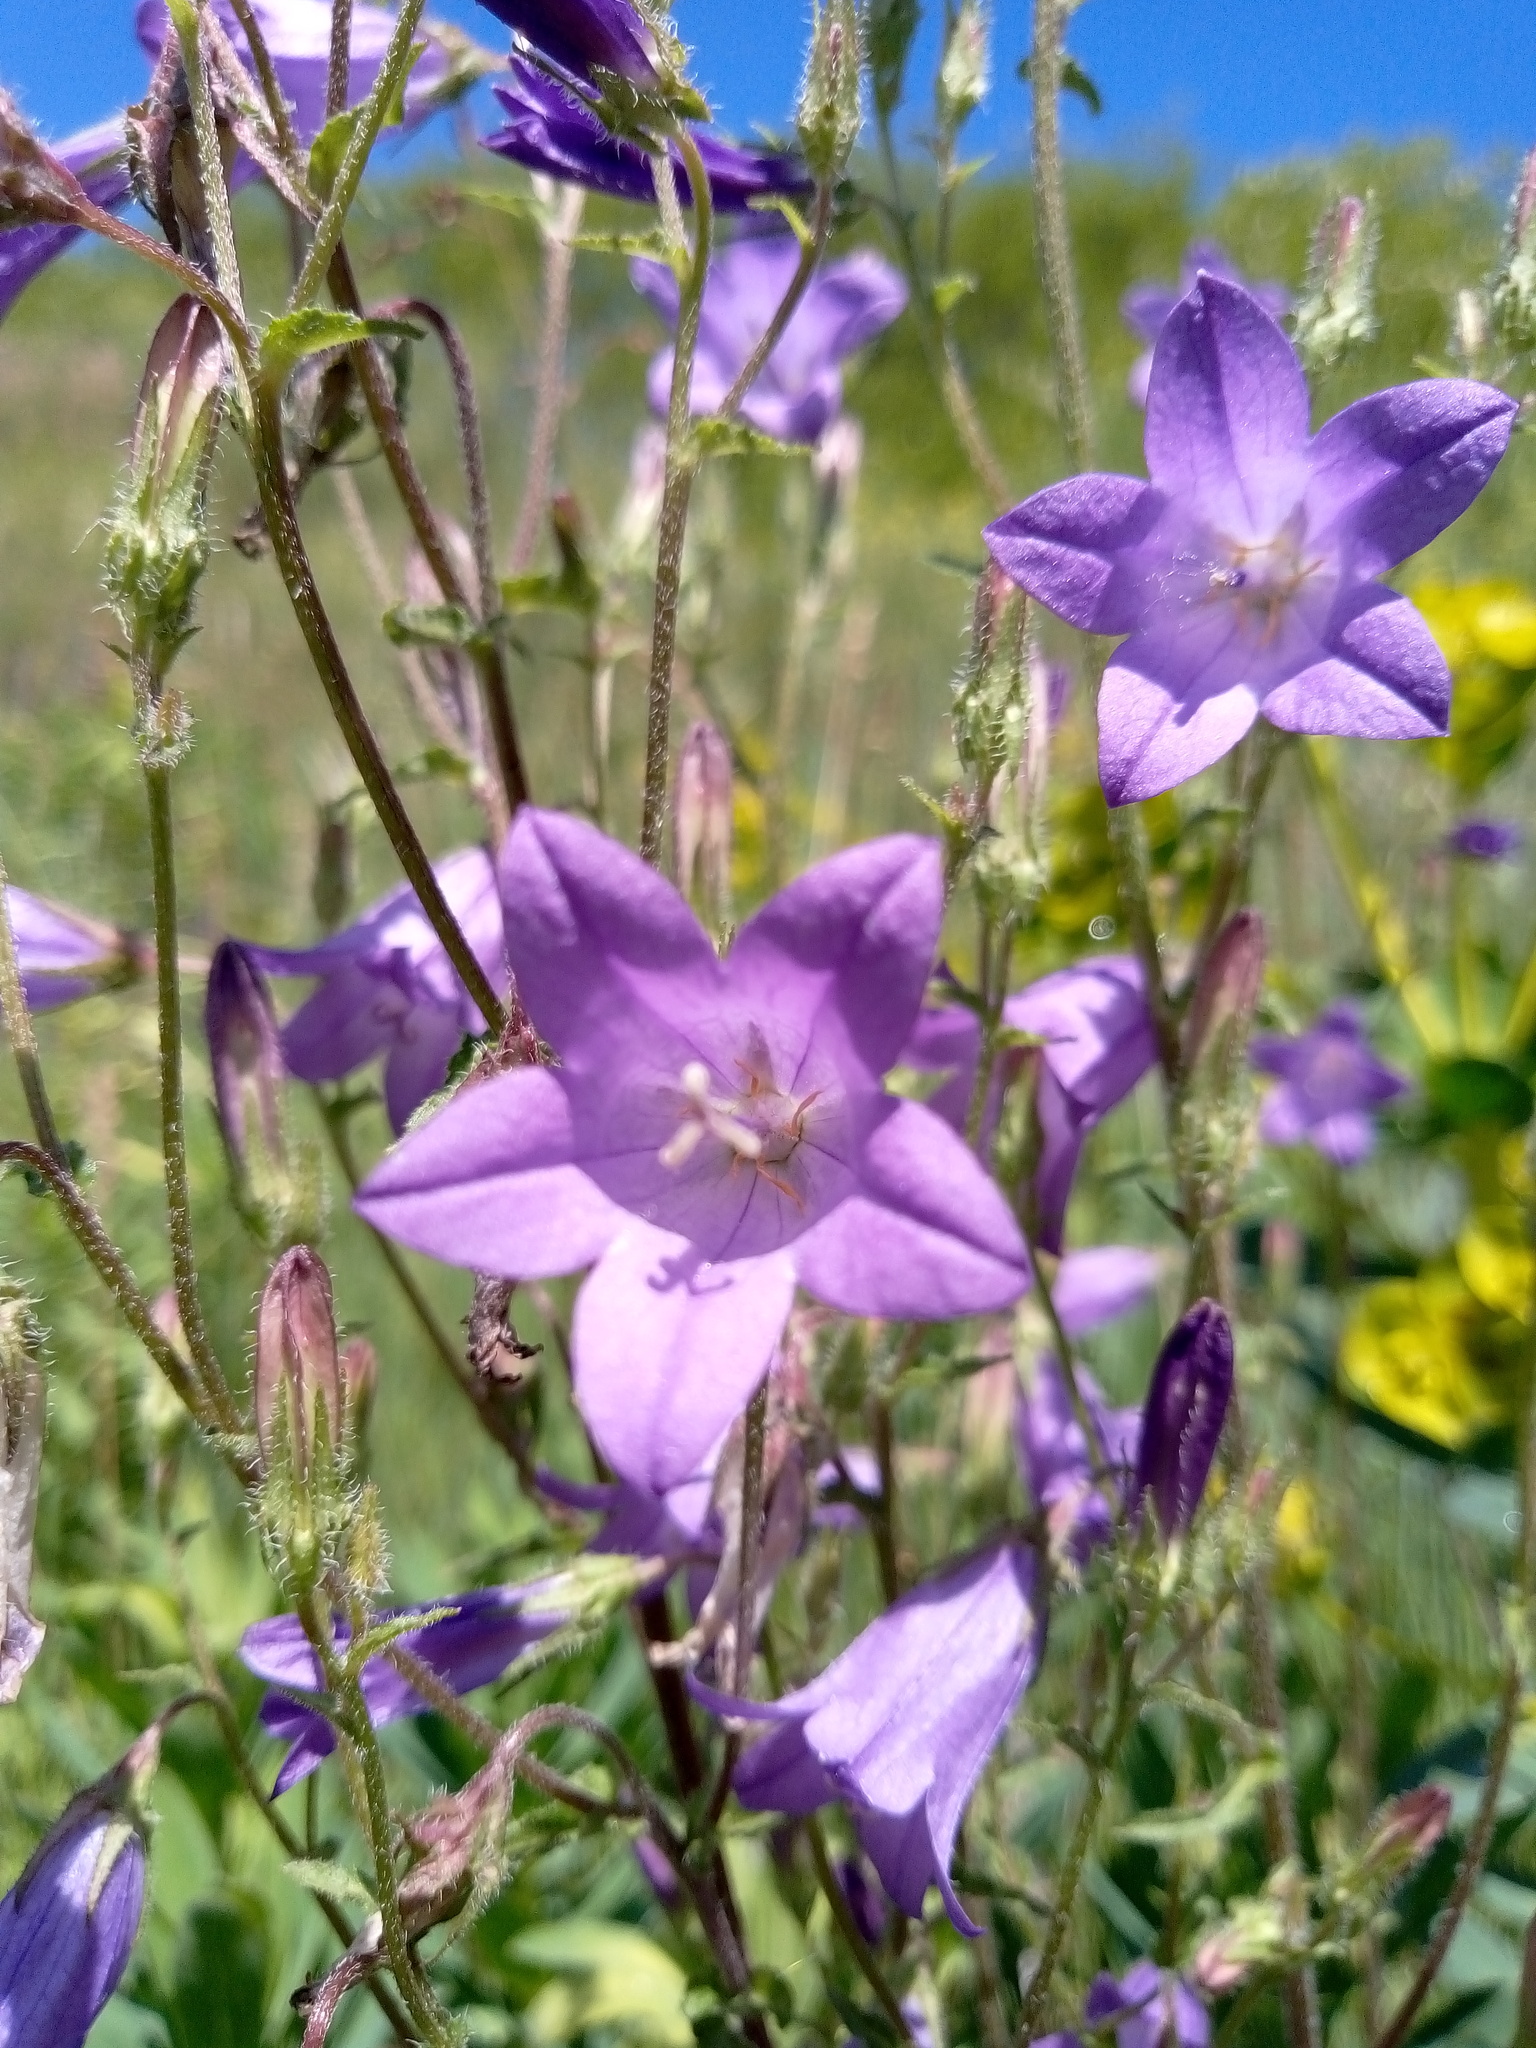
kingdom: Plantae
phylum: Tracheophyta
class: Magnoliopsida
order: Asterales
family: Campanulaceae
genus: Campanula
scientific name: Campanula sibirica
